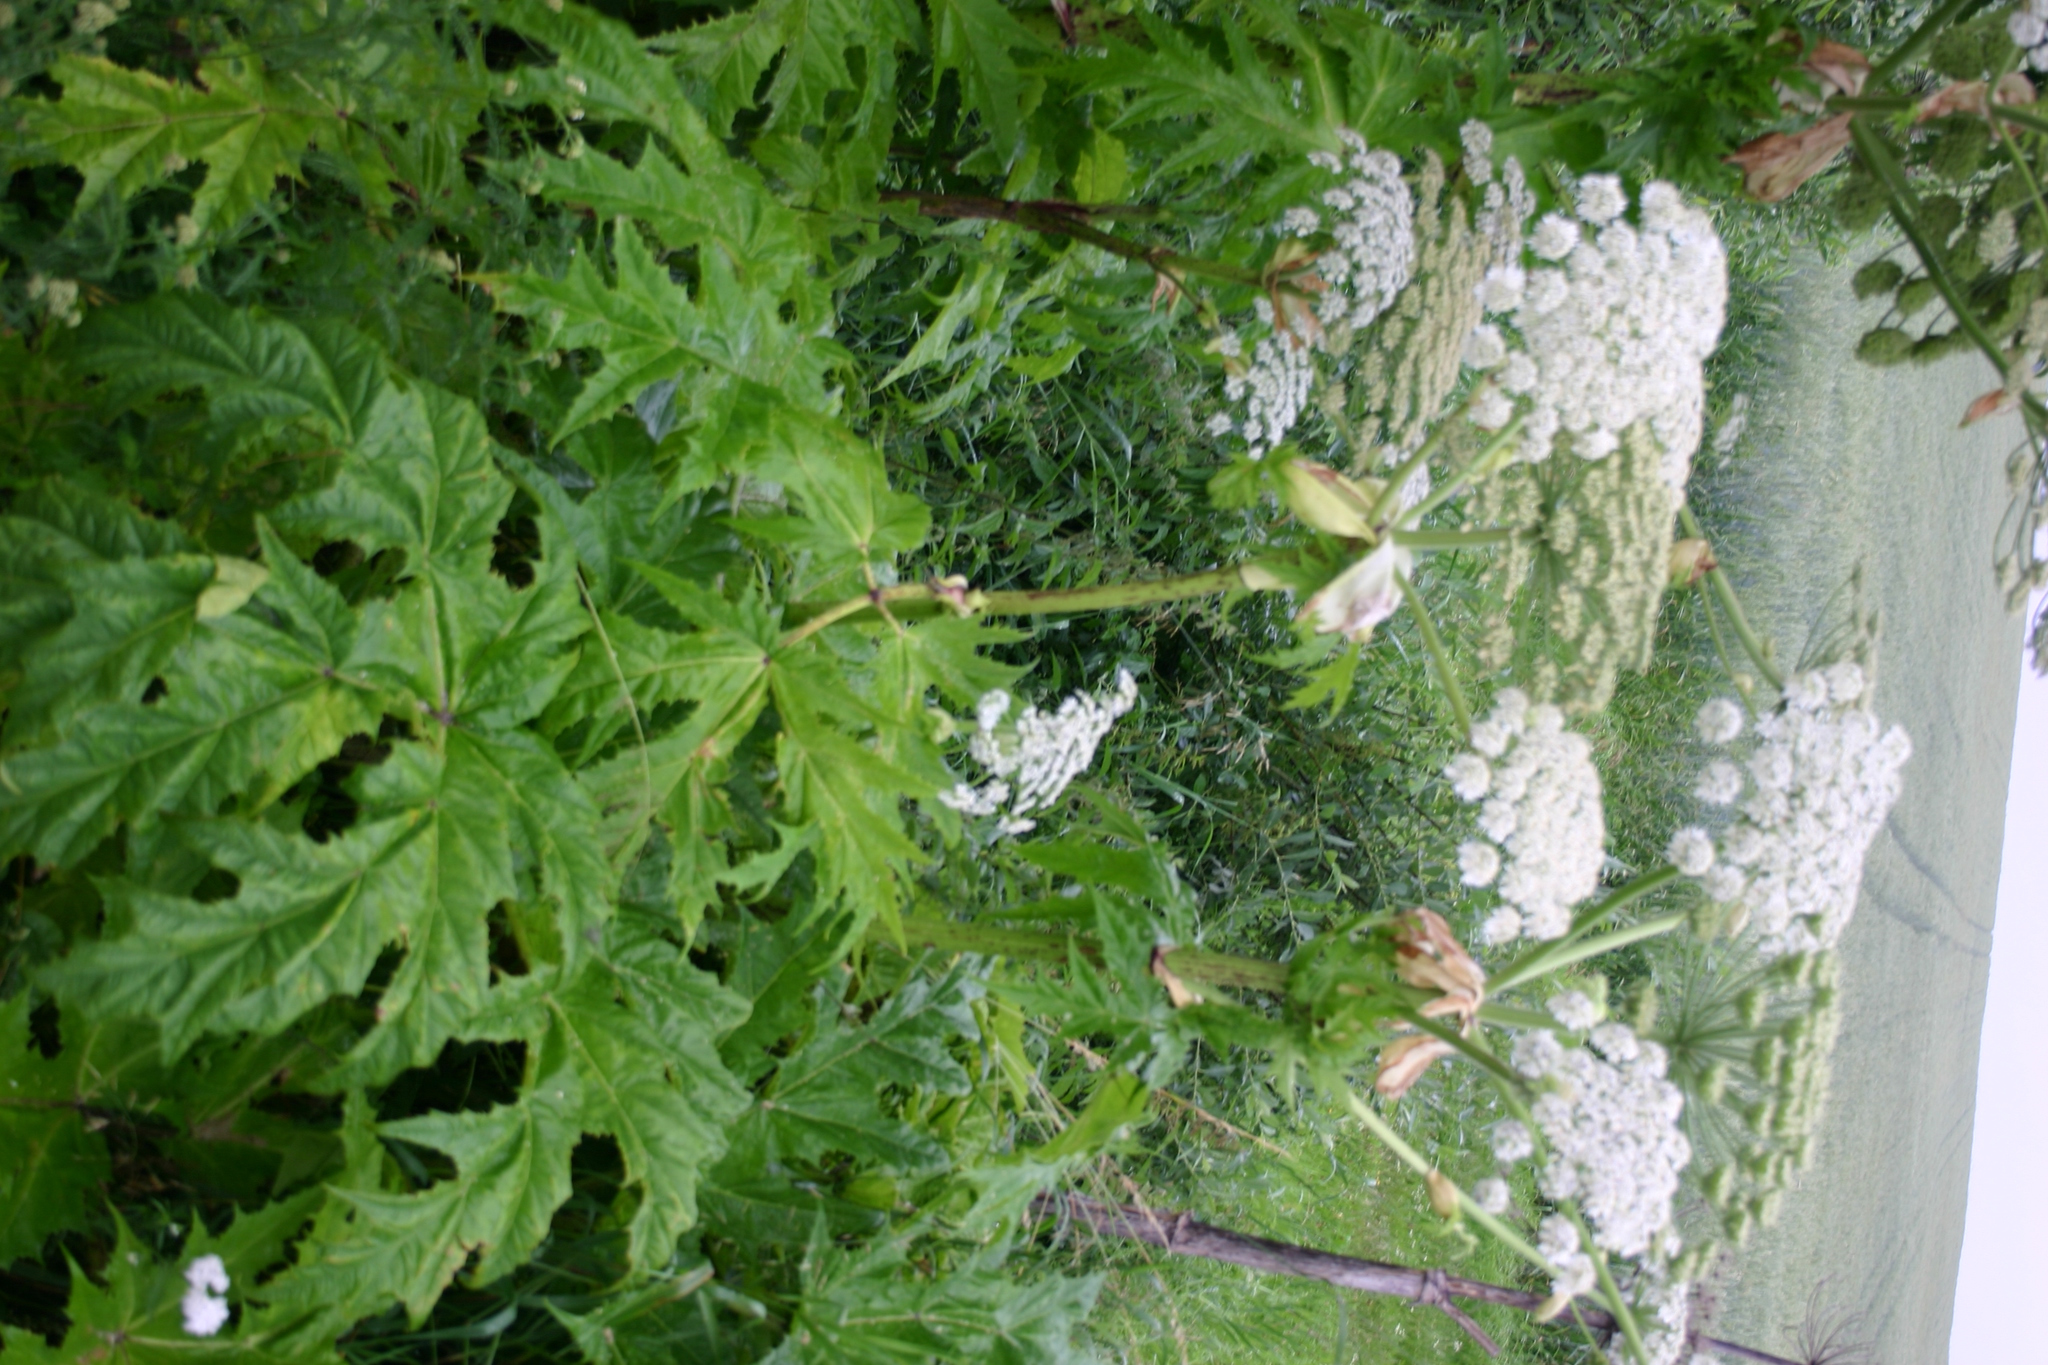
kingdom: Plantae
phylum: Tracheophyta
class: Magnoliopsida
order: Apiales
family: Apiaceae
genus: Heracleum
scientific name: Heracleum mantegazzianum
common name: Giant hogweed
